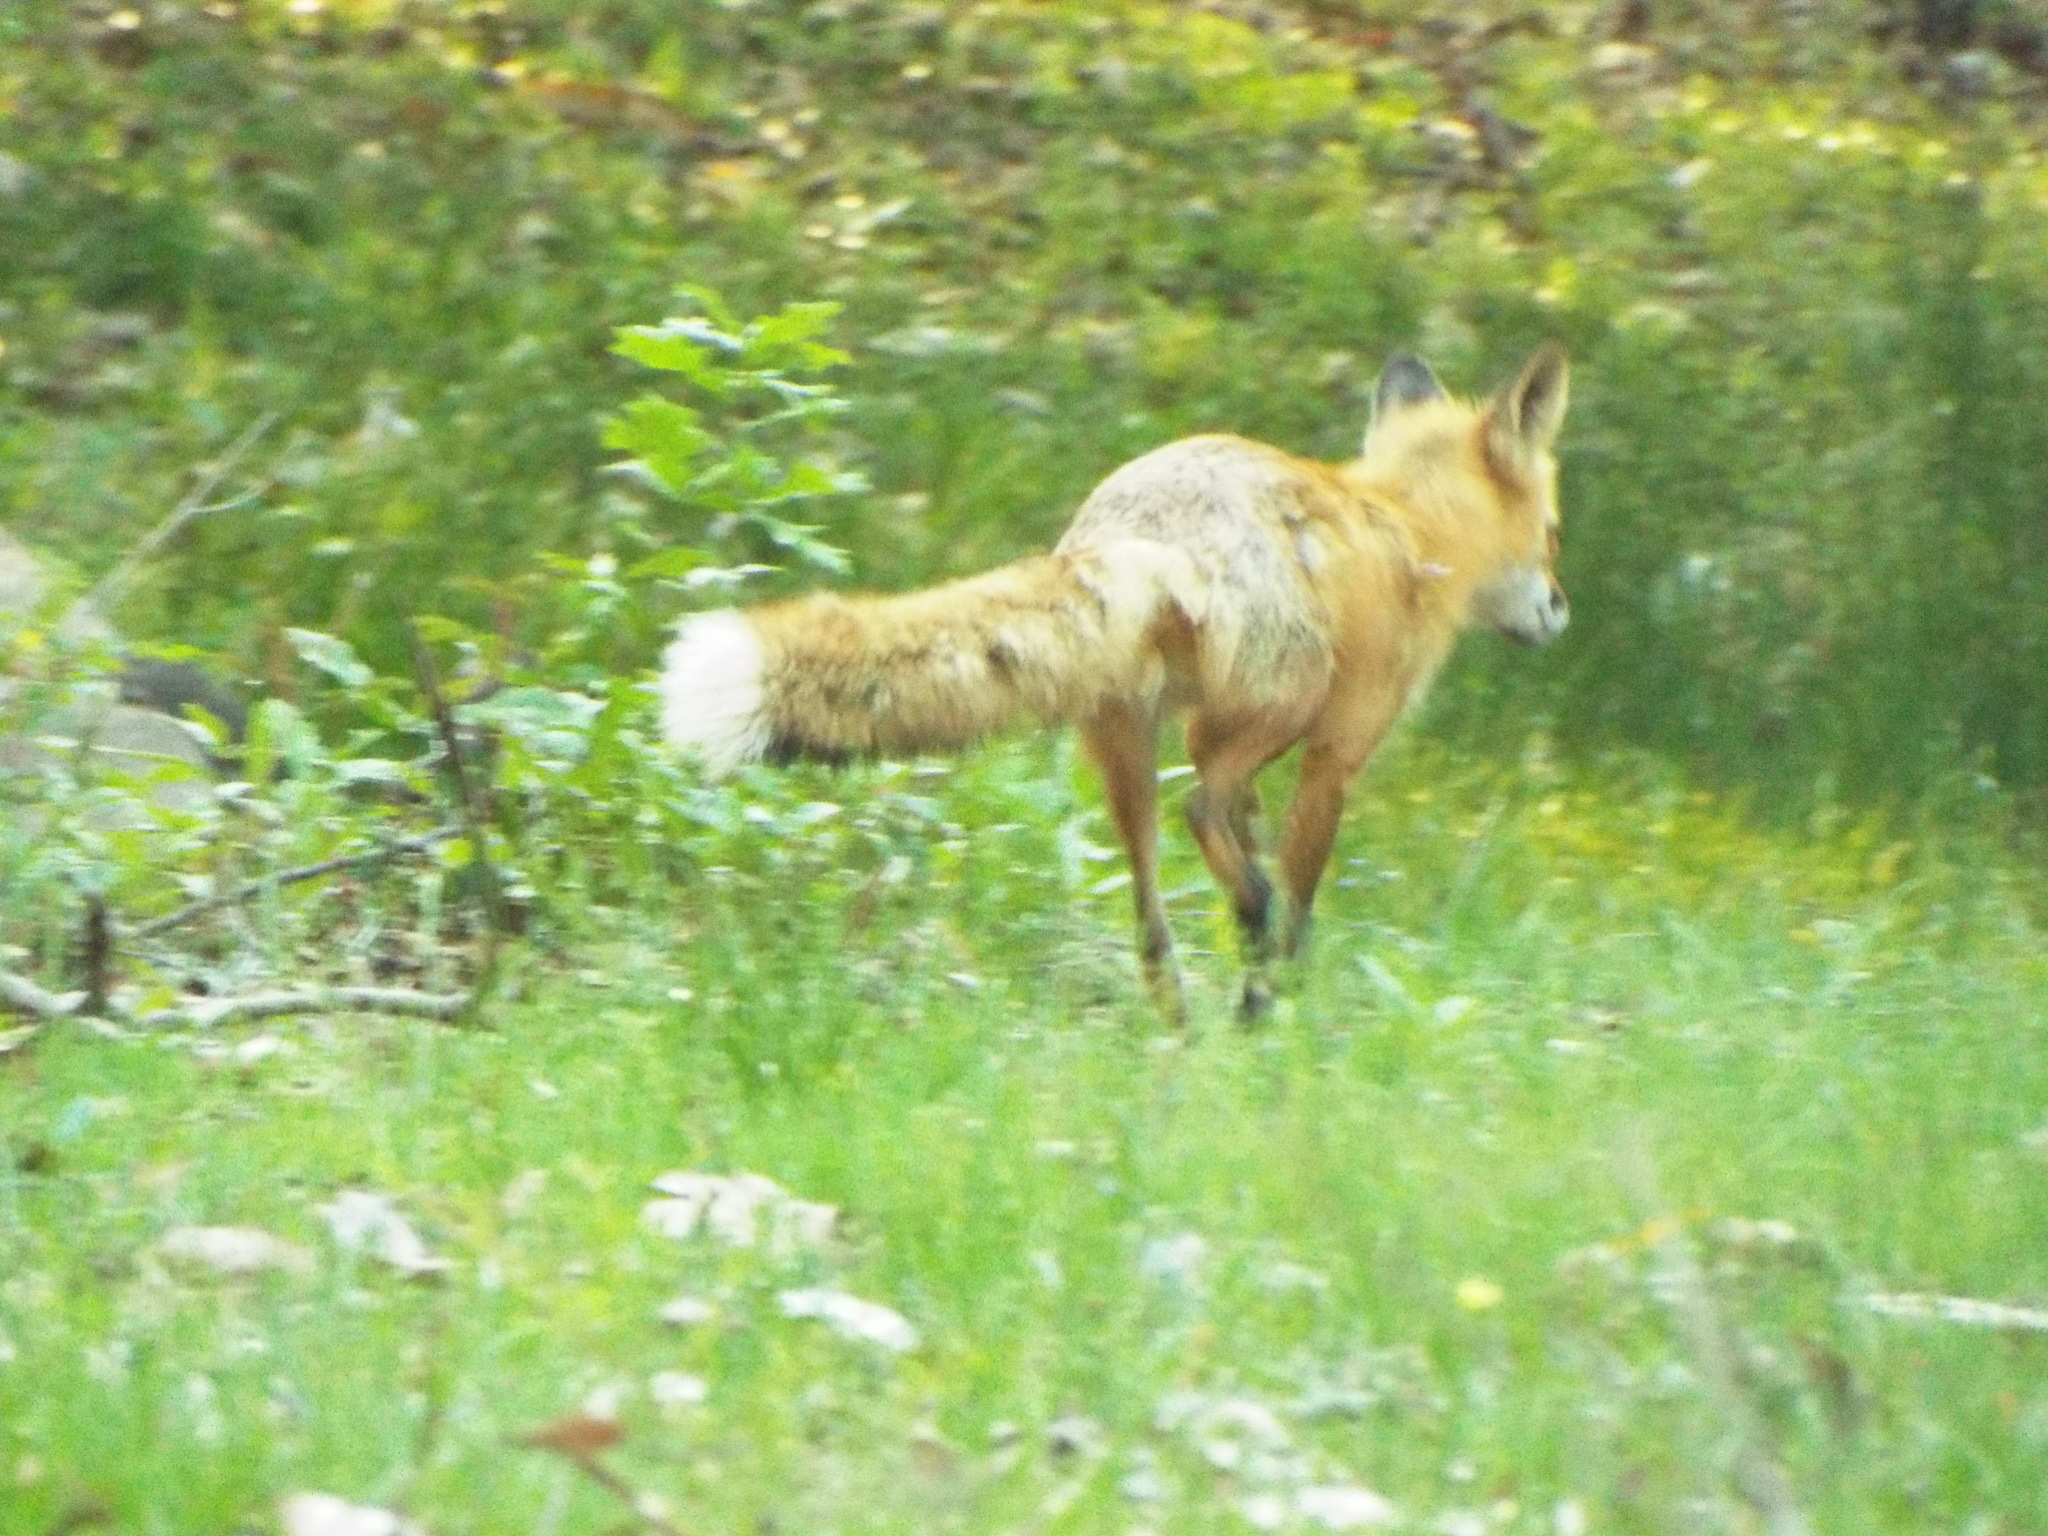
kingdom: Animalia
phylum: Chordata
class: Mammalia
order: Carnivora
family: Canidae
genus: Vulpes
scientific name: Vulpes vulpes
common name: Red fox
